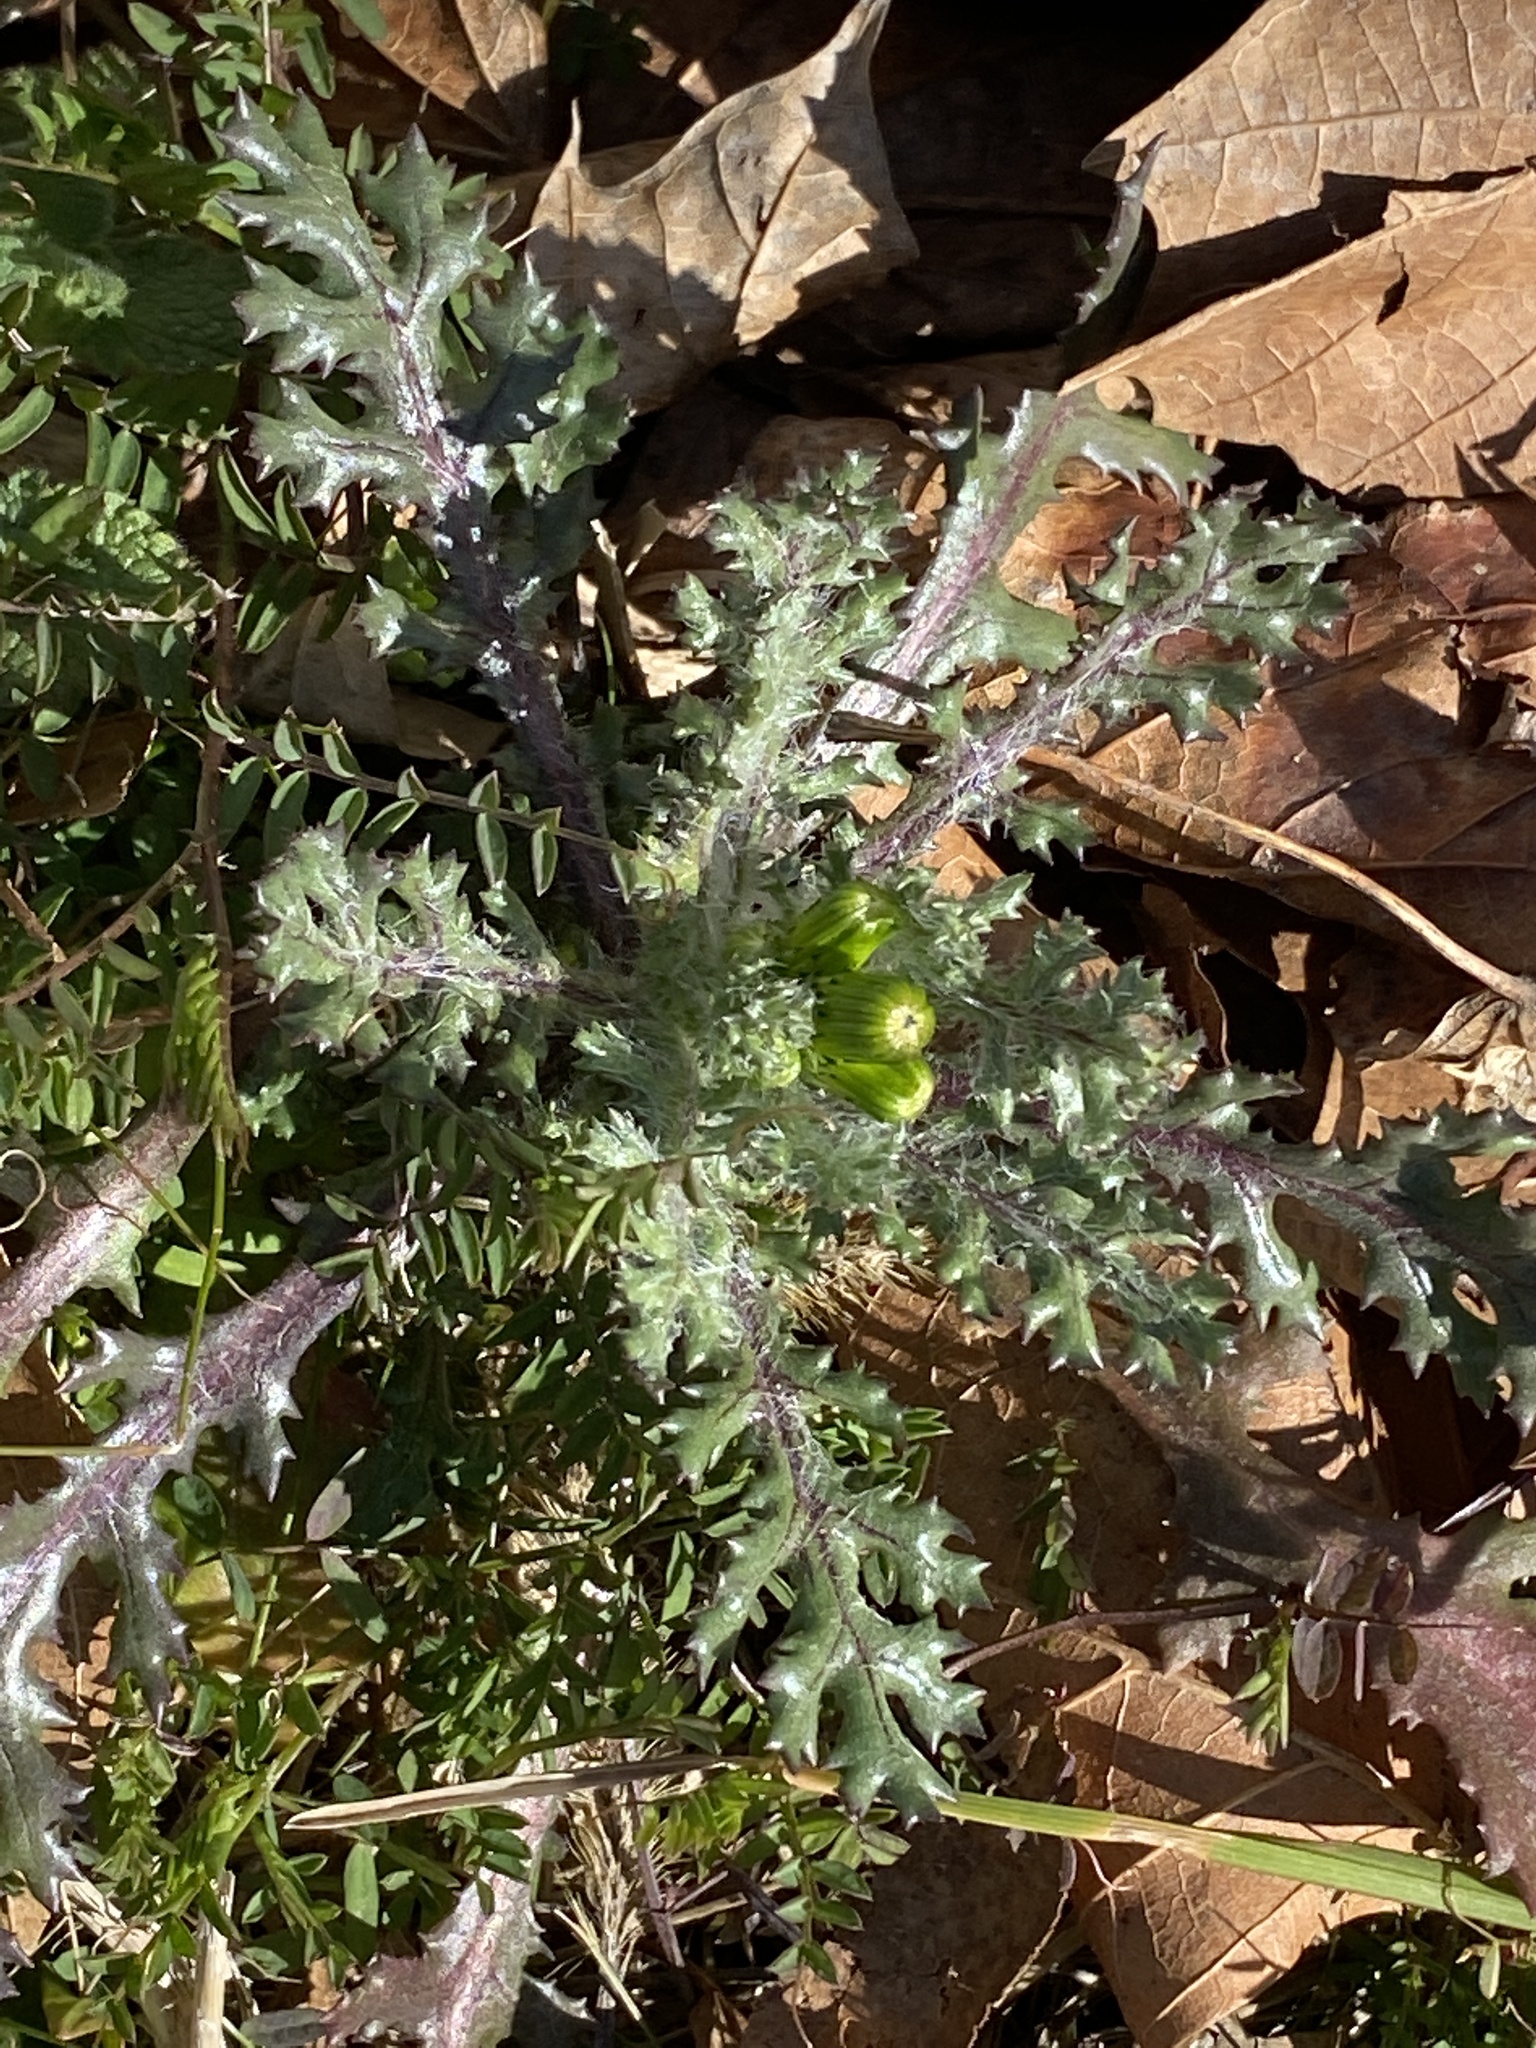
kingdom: Plantae
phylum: Tracheophyta
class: Magnoliopsida
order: Asterales
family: Asteraceae
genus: Senecio
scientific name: Senecio vulgaris
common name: Old-man-in-the-spring
